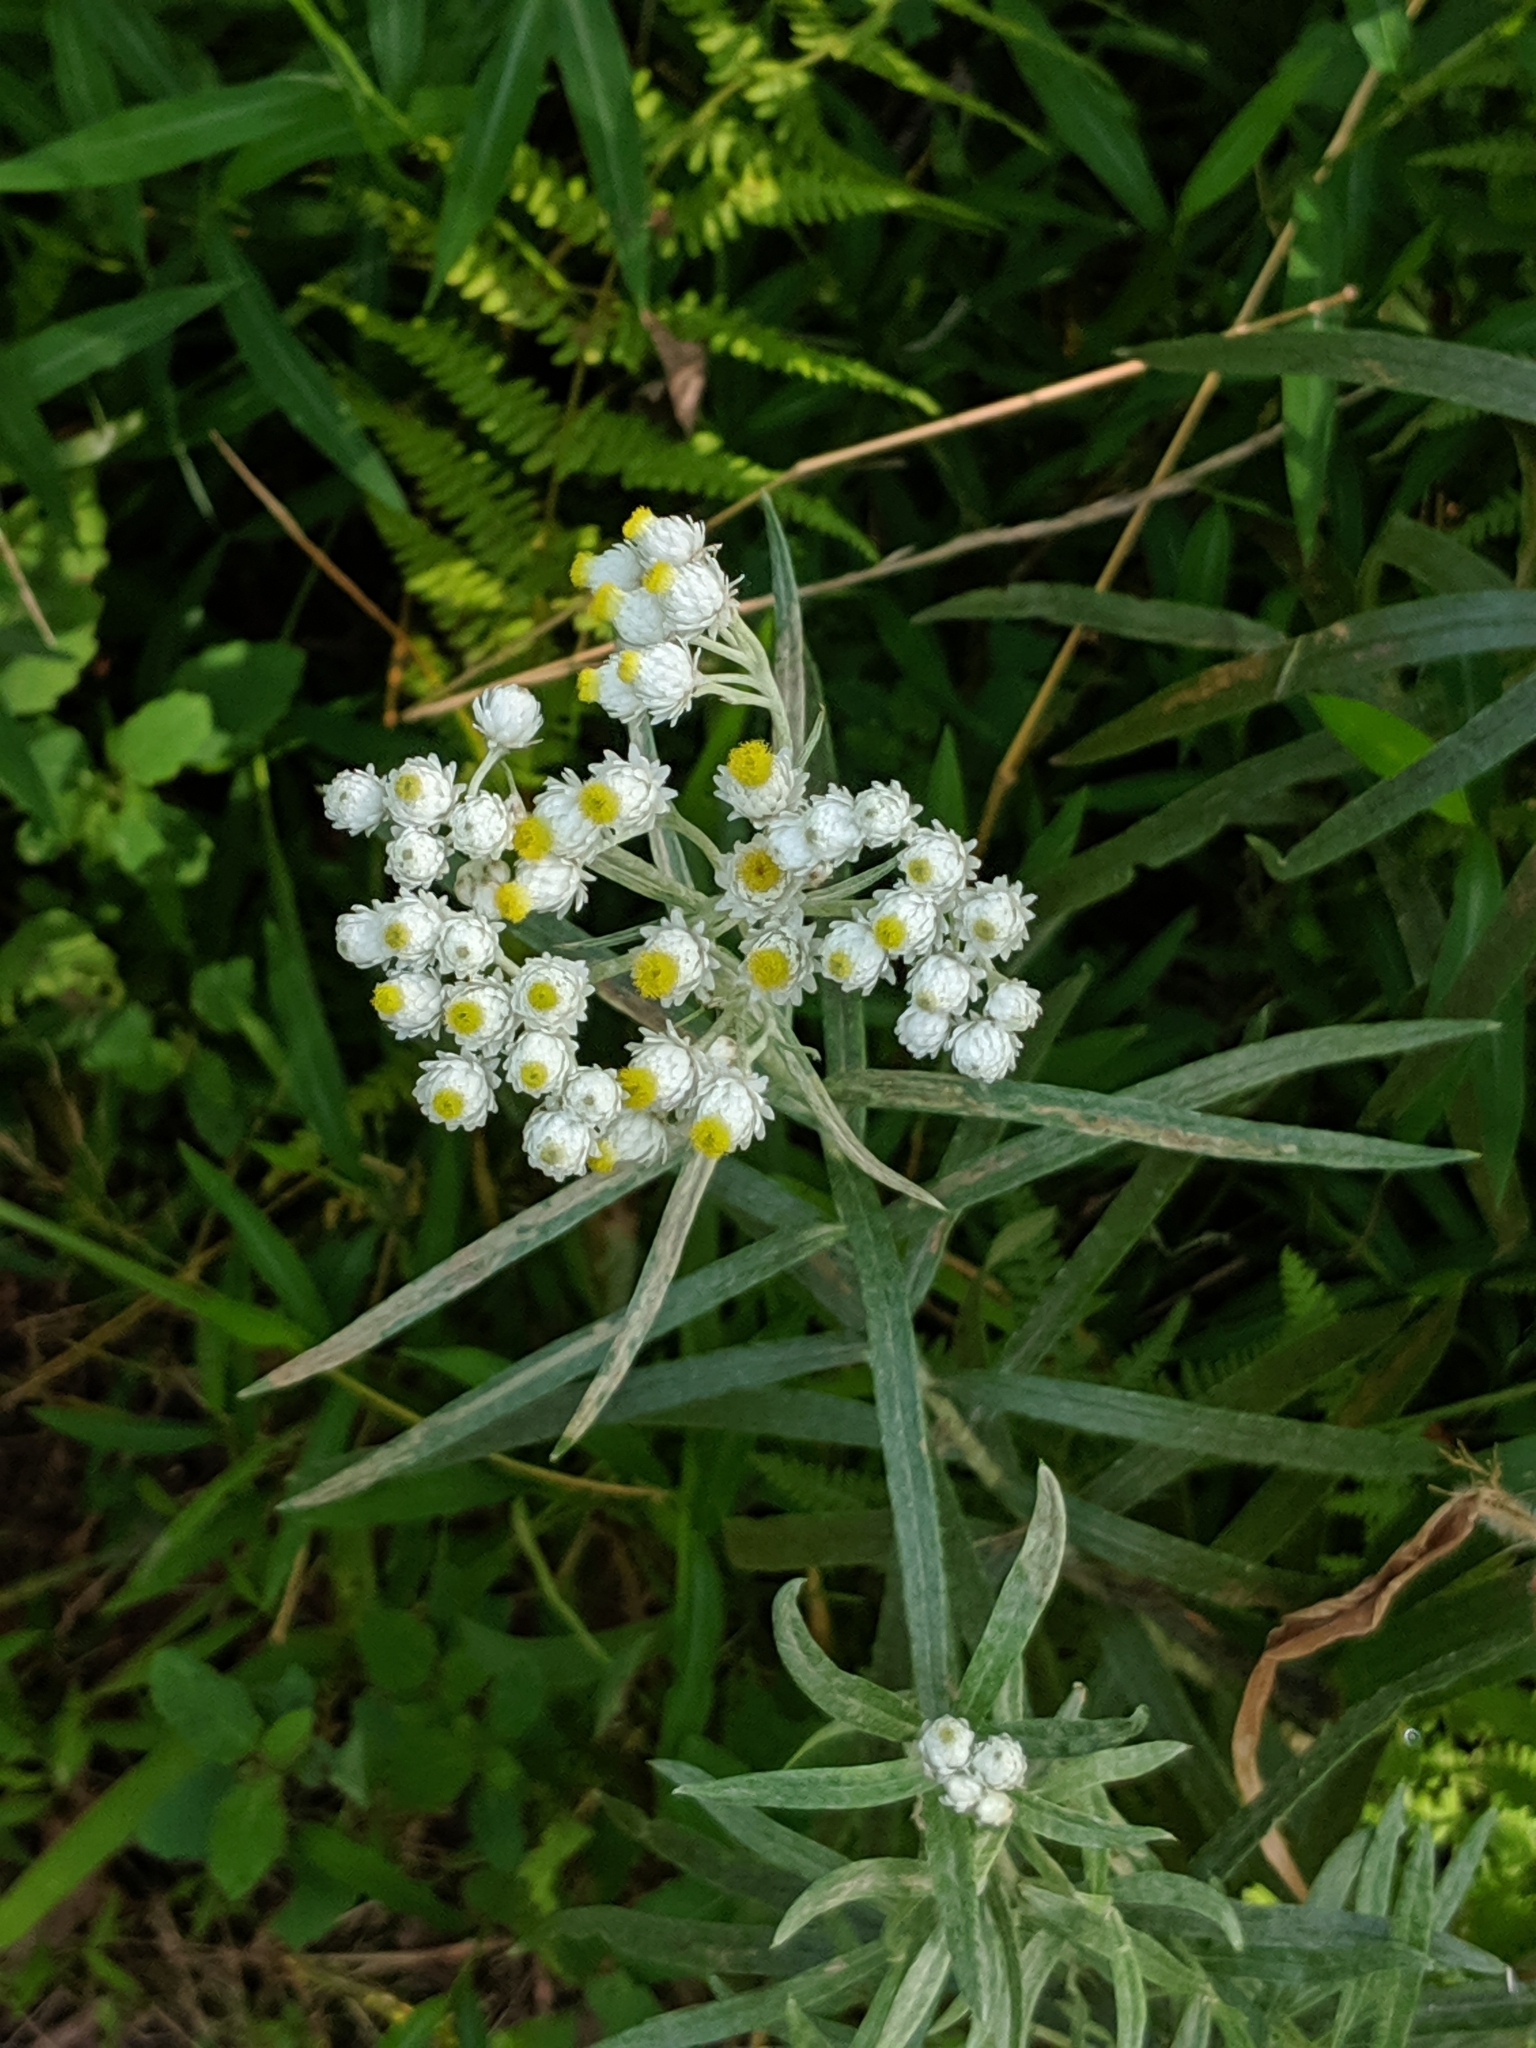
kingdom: Plantae
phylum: Tracheophyta
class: Magnoliopsida
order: Asterales
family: Asteraceae
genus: Anaphalis
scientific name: Anaphalis margaritacea
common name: Pearly everlasting
